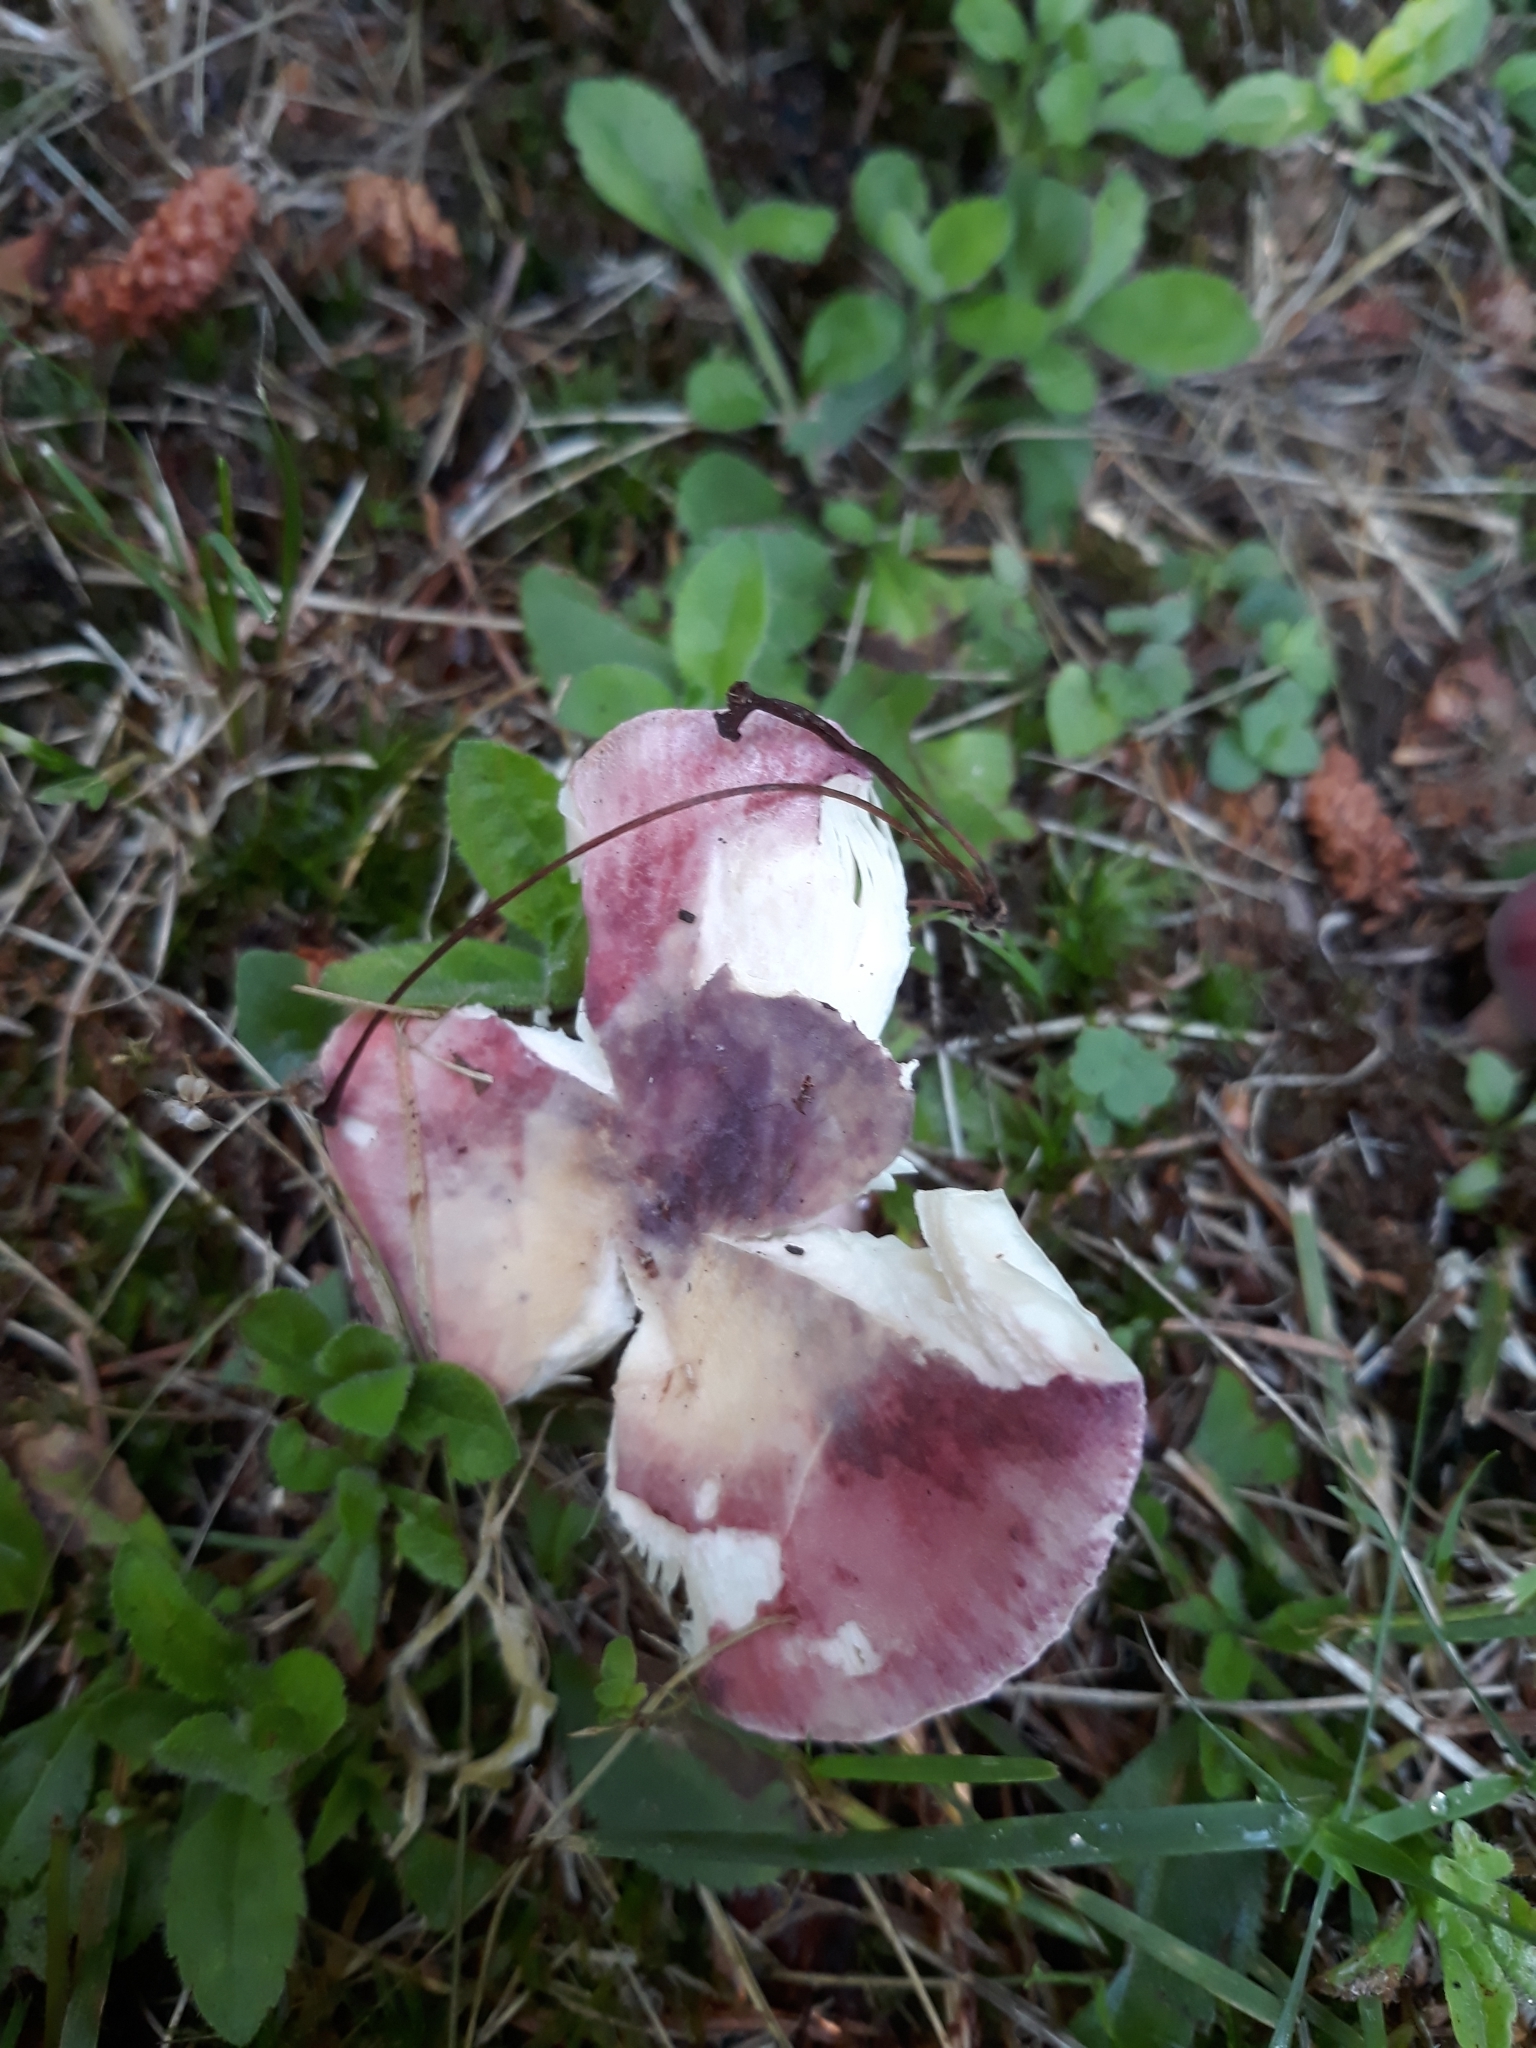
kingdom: Fungi
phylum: Basidiomycota
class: Agaricomycetes
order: Russulales
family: Russulaceae
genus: Russula
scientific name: Russula mariae
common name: Purple-bloom russula
